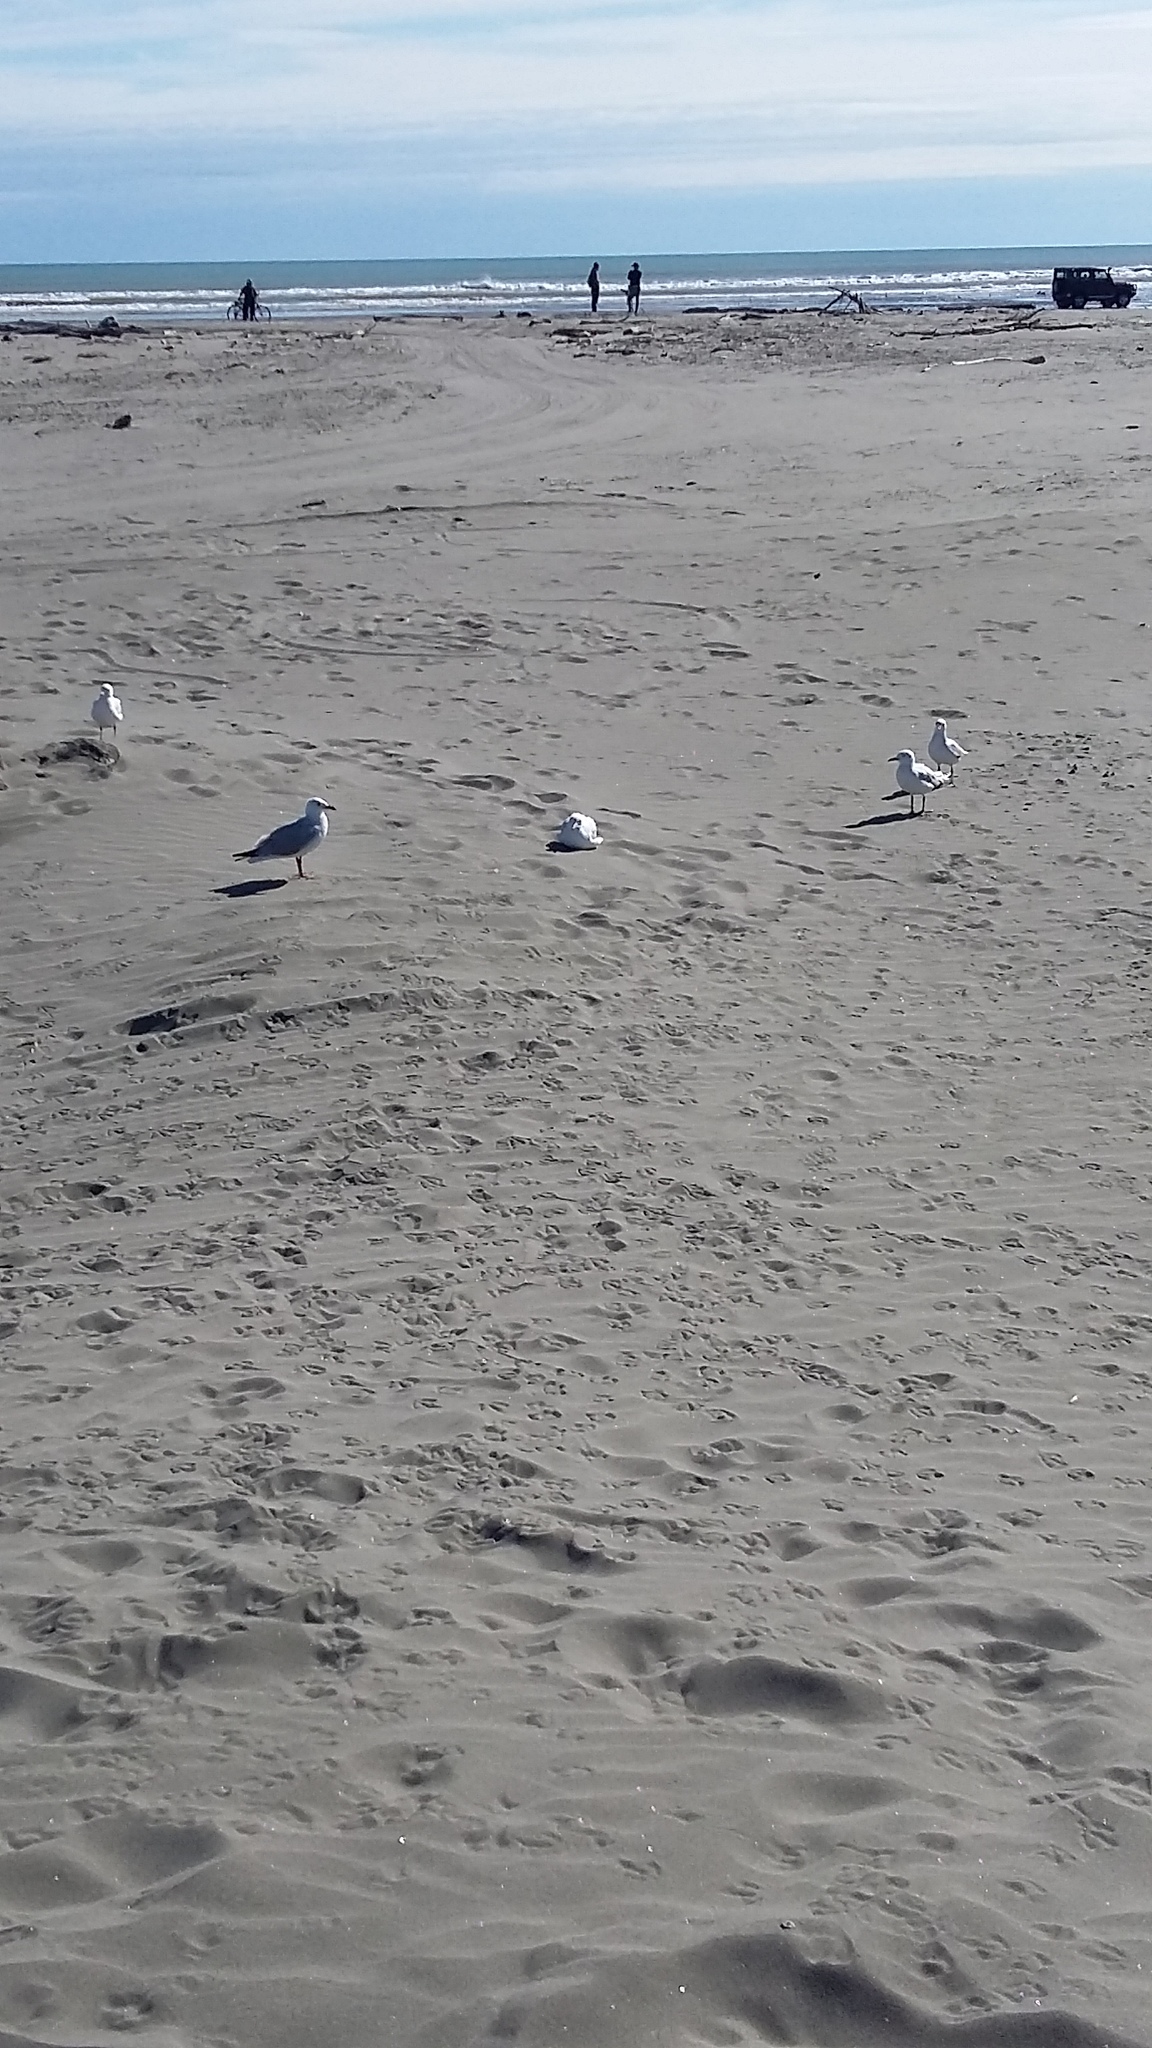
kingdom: Animalia
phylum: Chordata
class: Aves
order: Charadriiformes
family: Laridae
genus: Chroicocephalus
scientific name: Chroicocephalus novaehollandiae
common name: Silver gull
